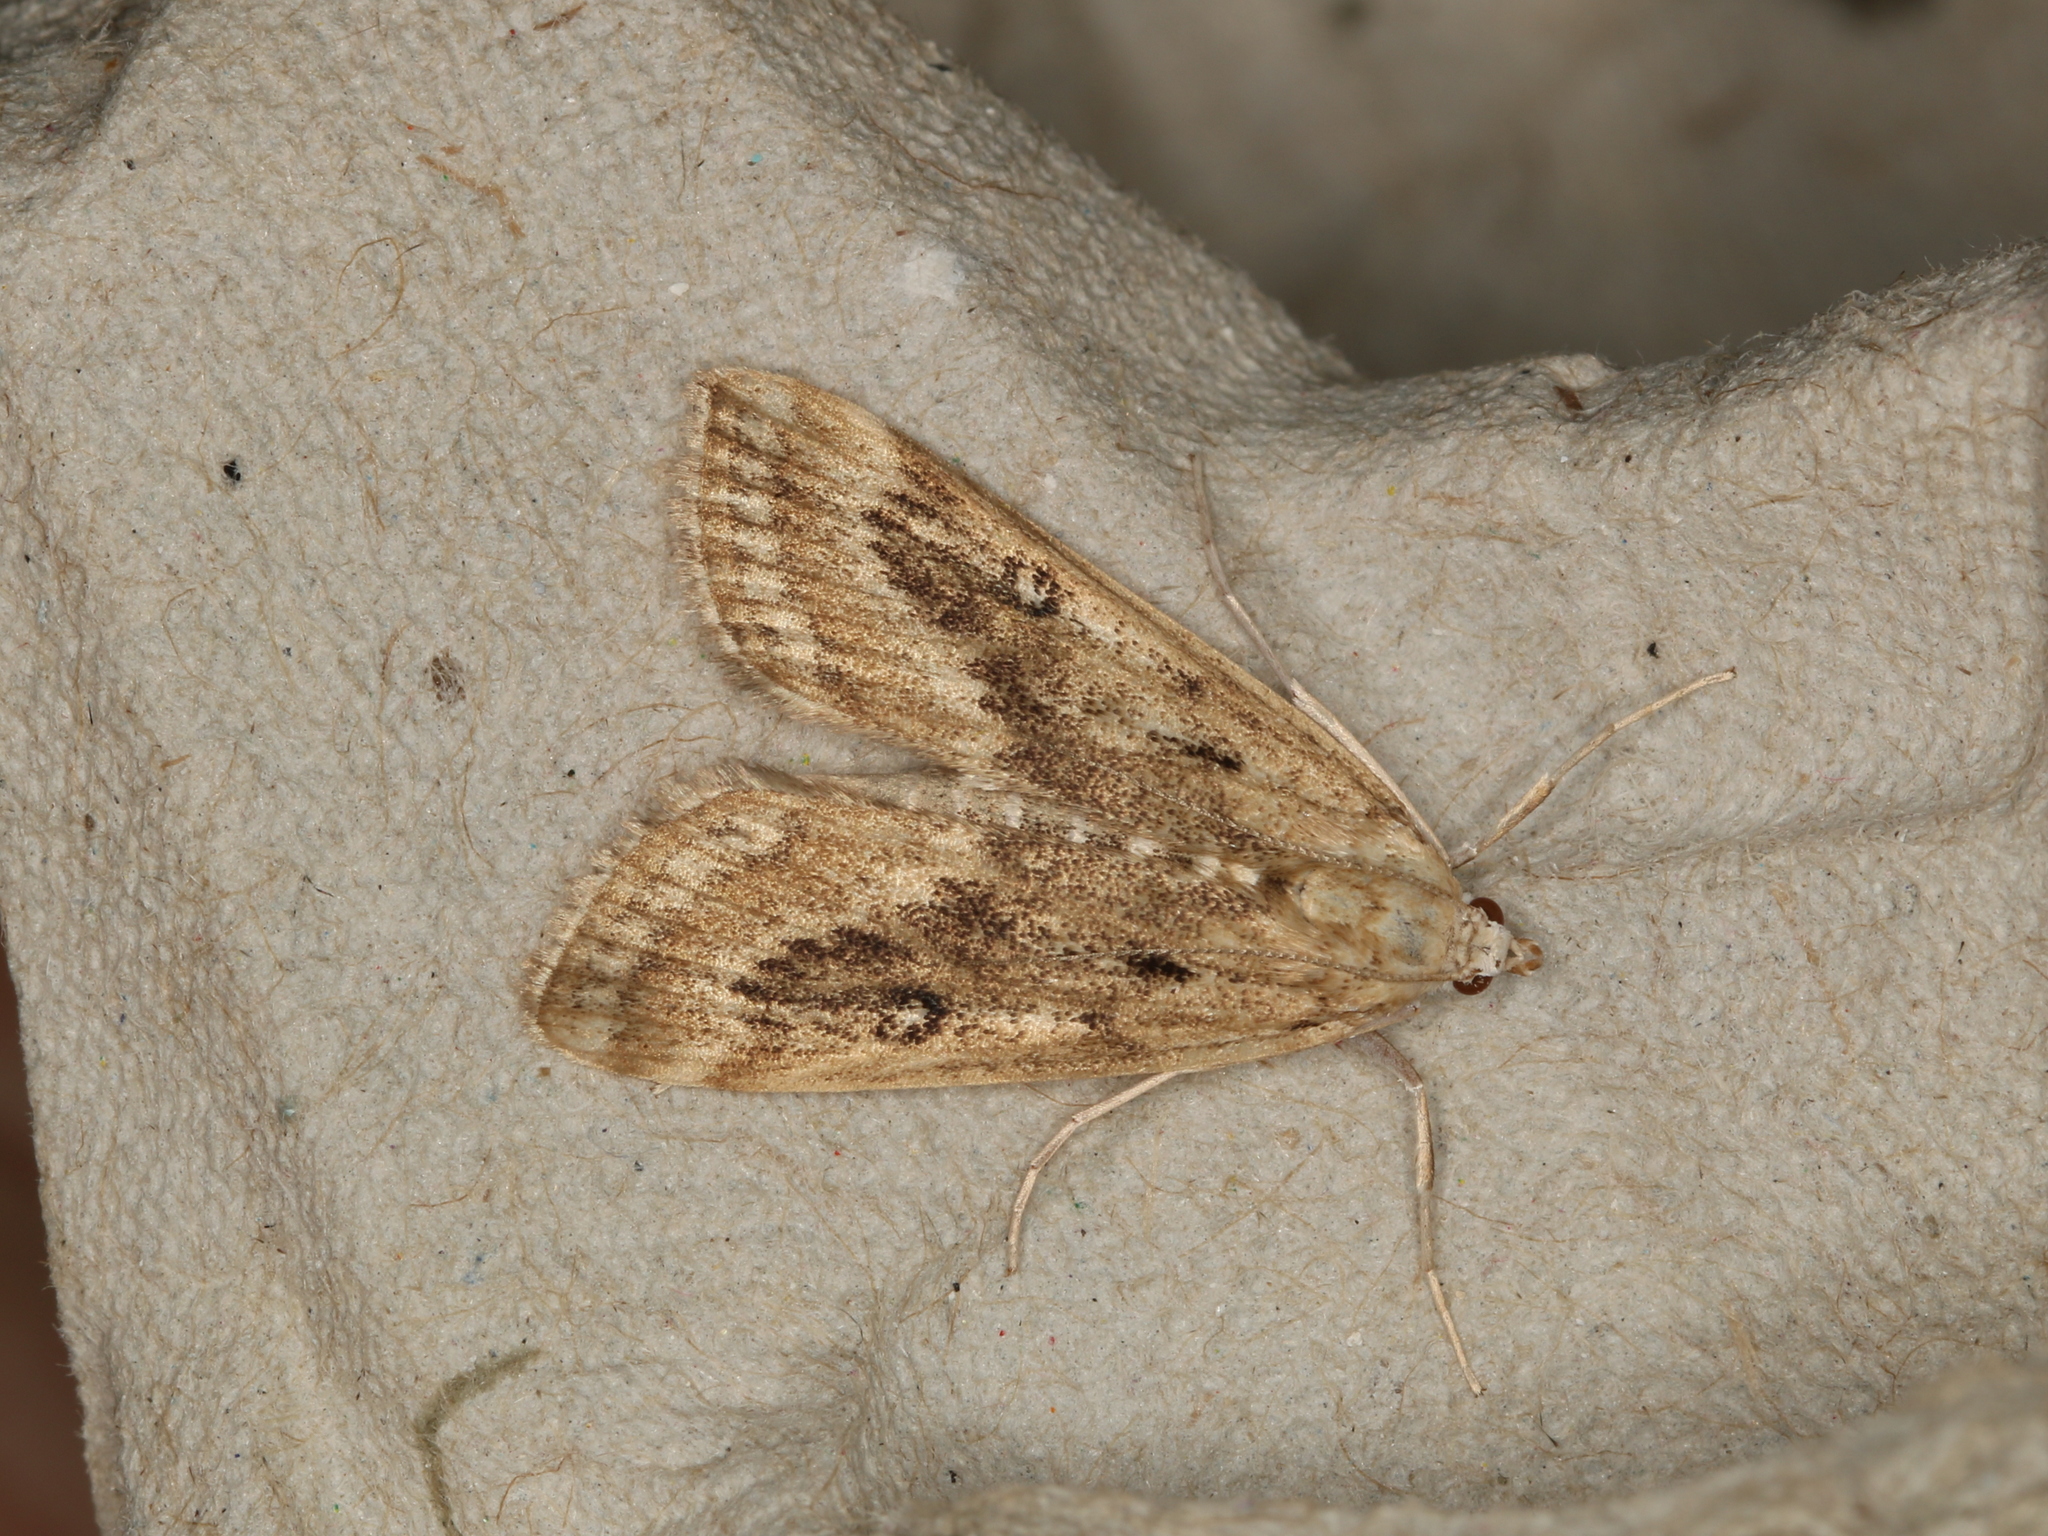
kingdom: Animalia
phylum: Arthropoda
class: Insecta
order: Lepidoptera
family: Crambidae
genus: Parapoynx
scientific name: Parapoynx stratiotata
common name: Ringed china-mark
